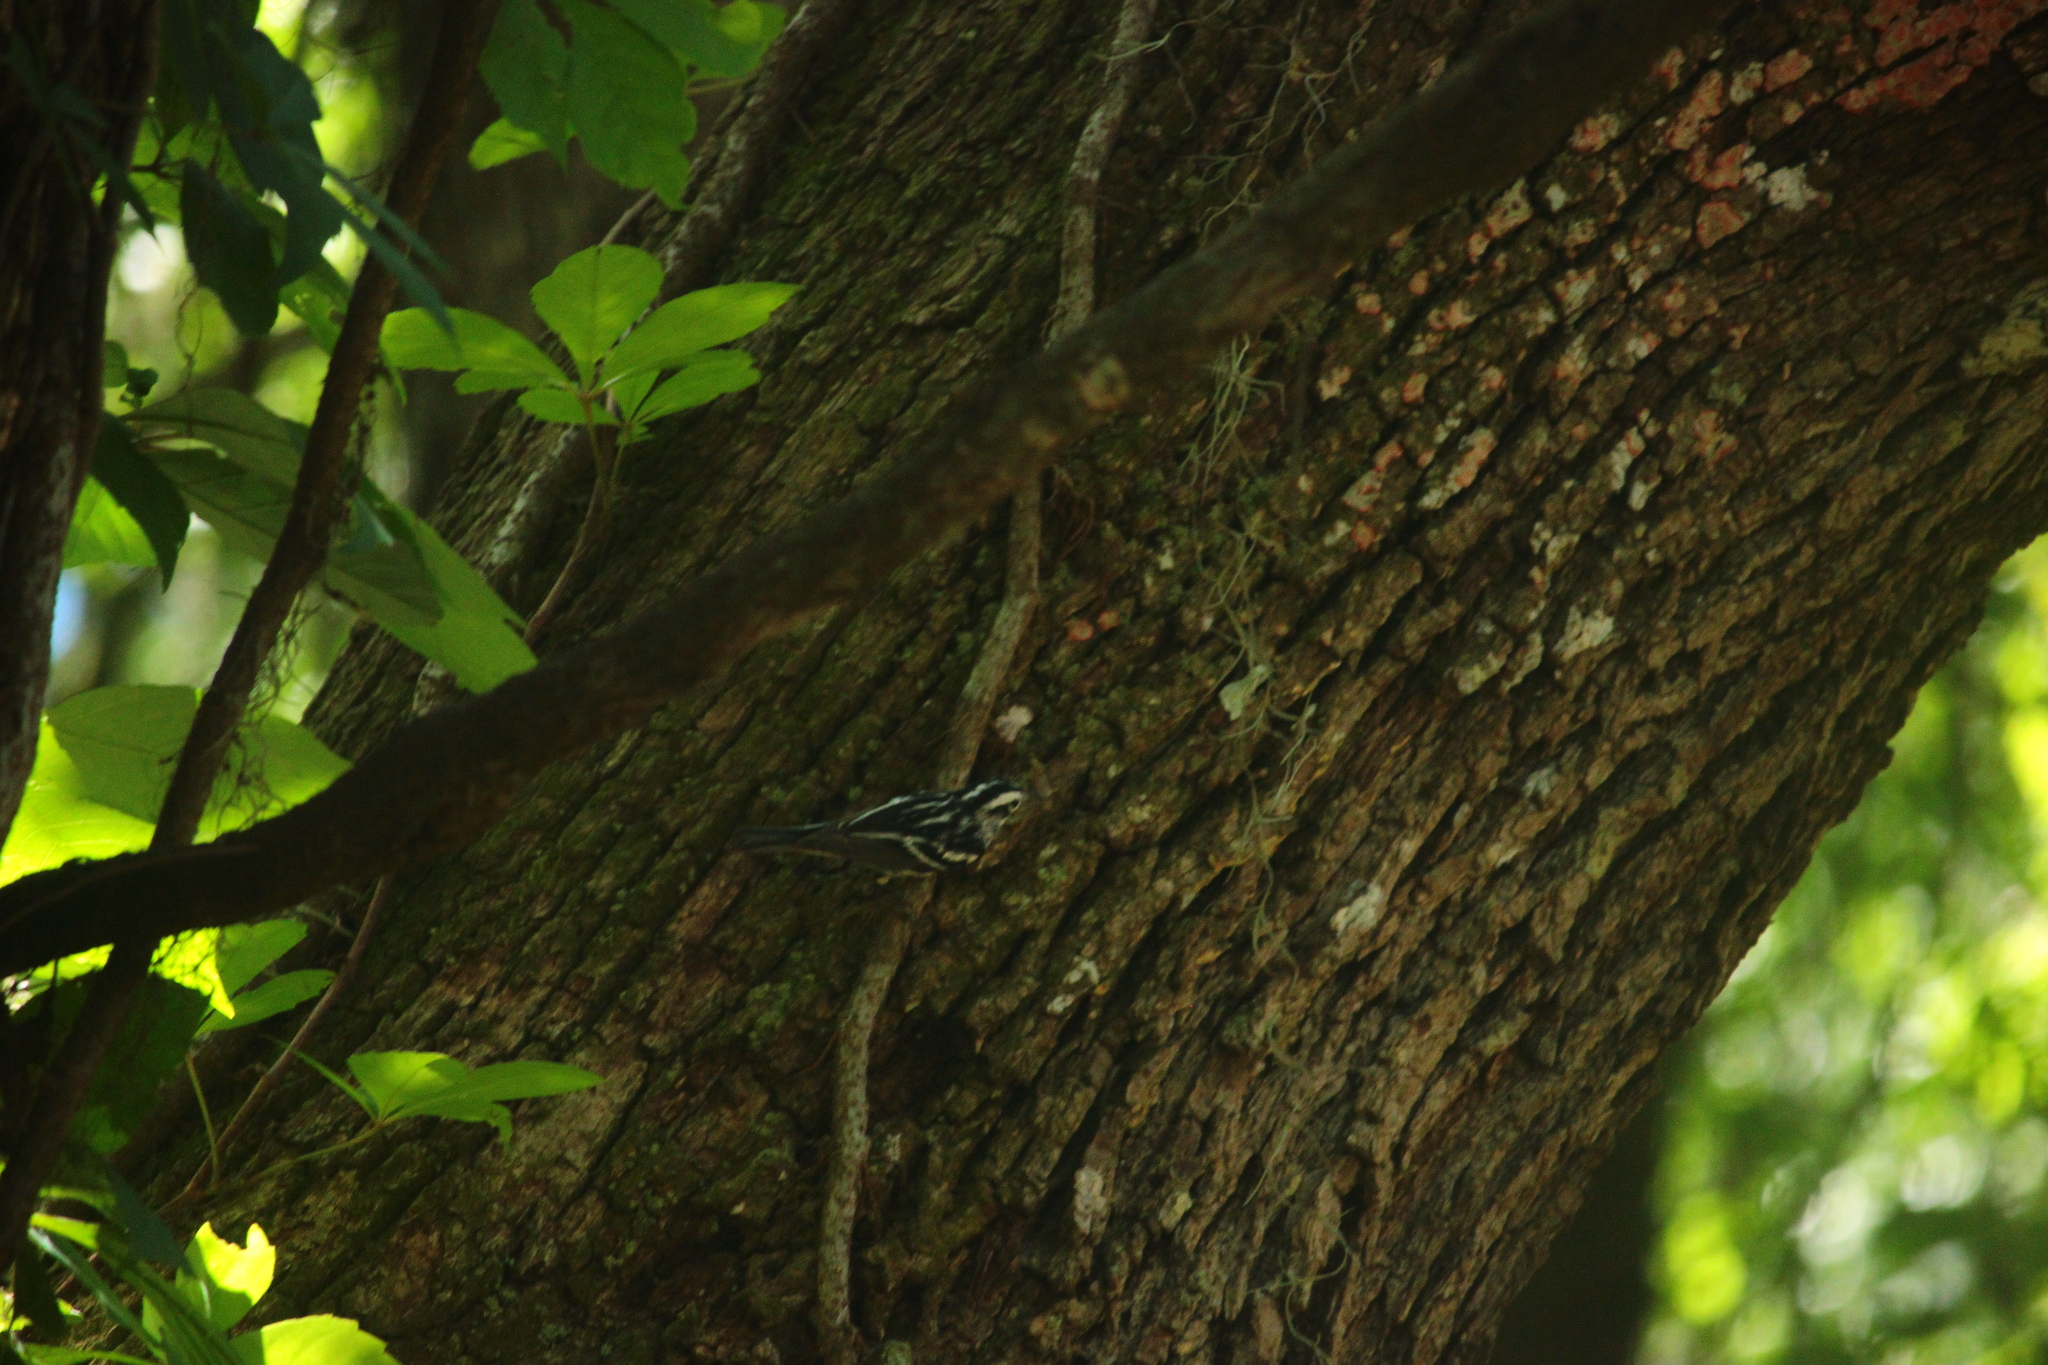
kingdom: Animalia
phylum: Chordata
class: Aves
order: Passeriformes
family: Parulidae
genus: Mniotilta
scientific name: Mniotilta varia
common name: Black-and-white warbler
